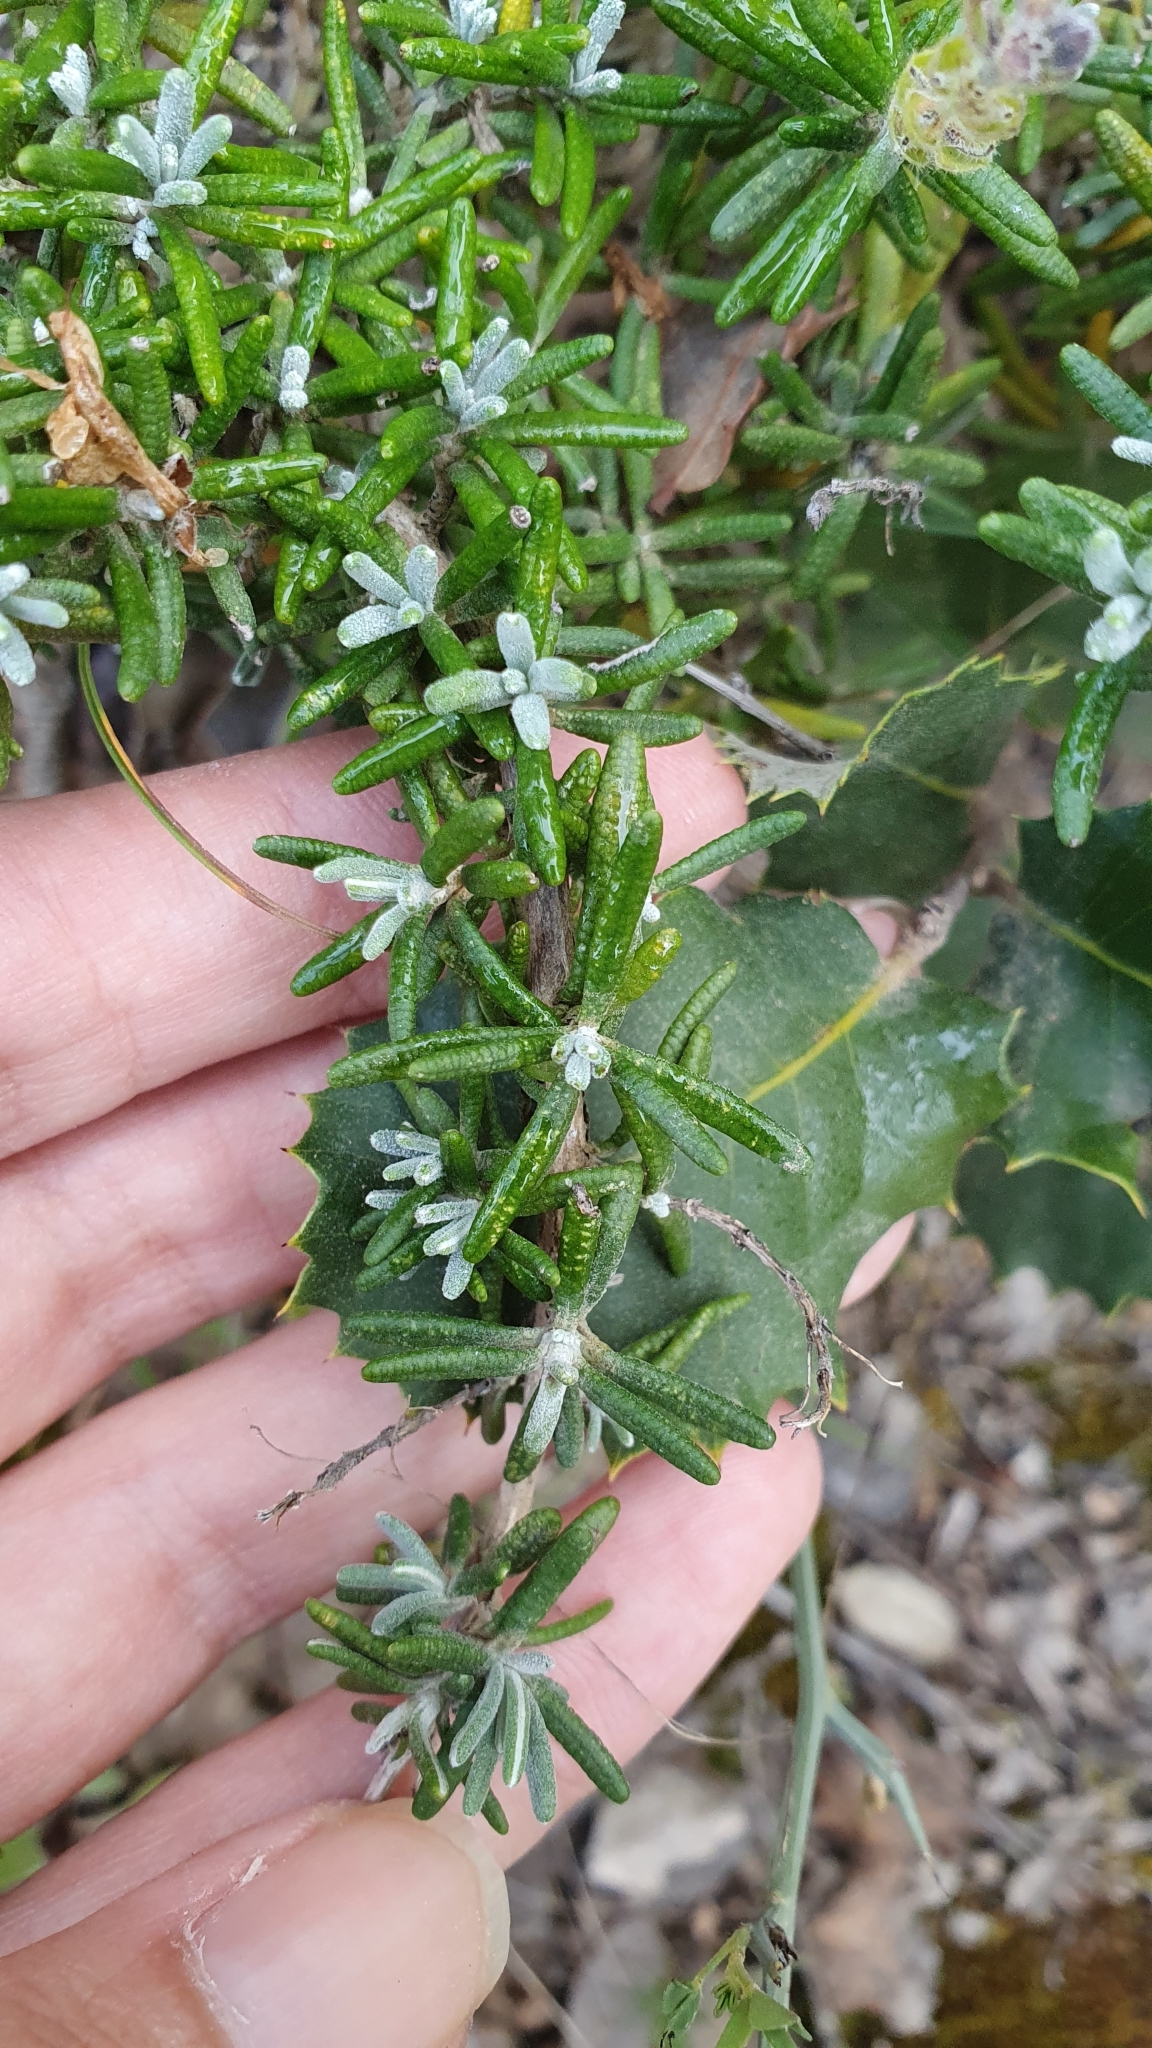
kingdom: Plantae
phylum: Tracheophyta
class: Magnoliopsida
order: Lamiales
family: Lamiaceae
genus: Salvia
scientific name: Salvia jordanii
